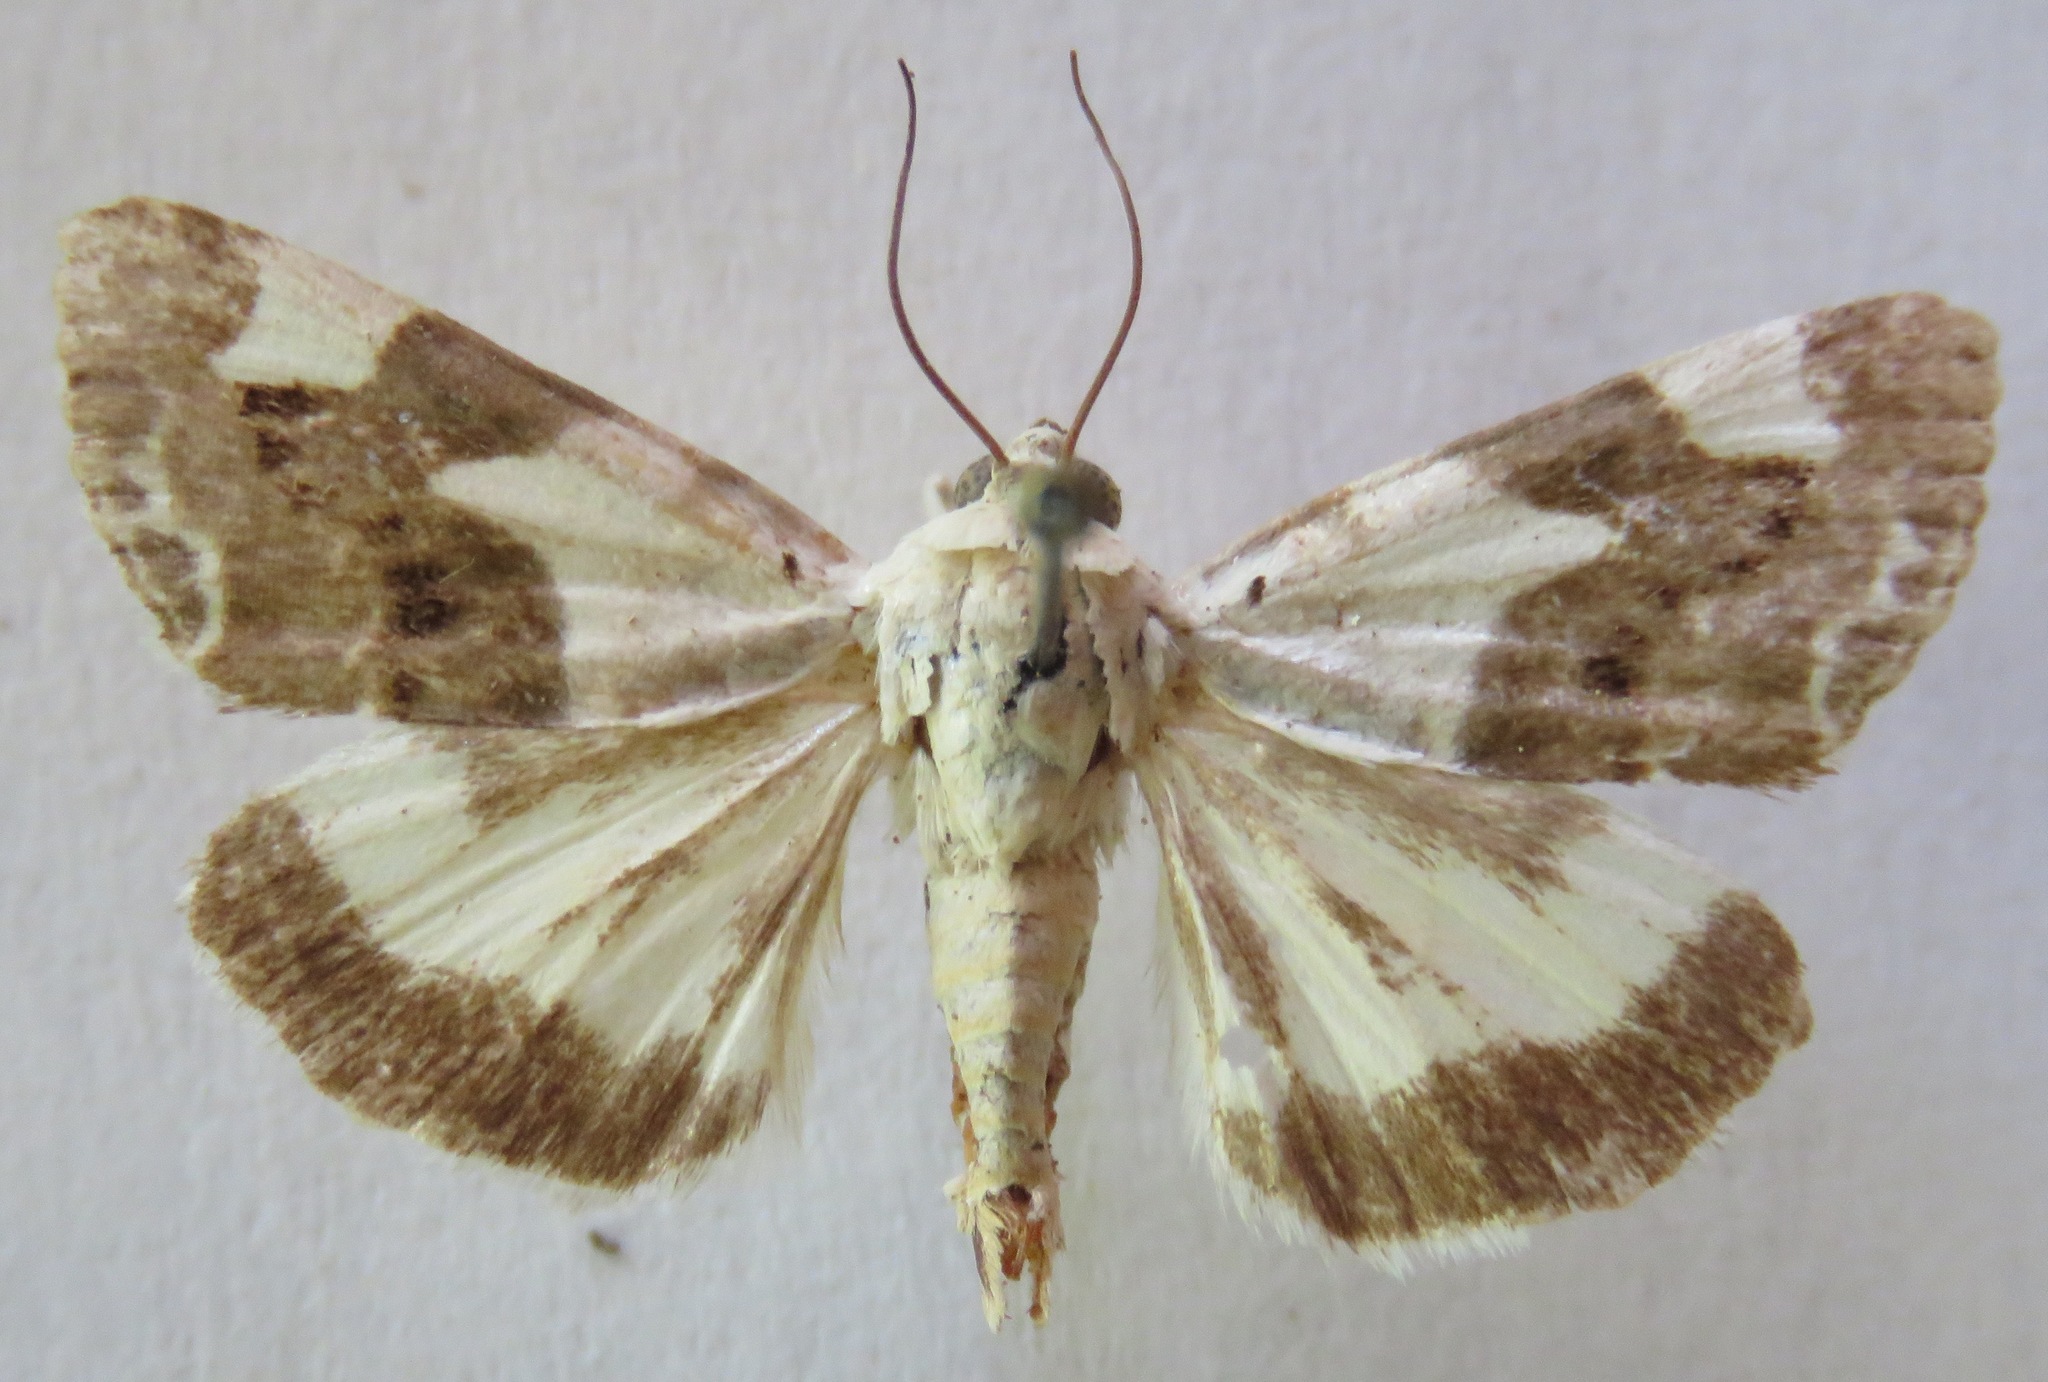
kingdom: Animalia
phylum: Arthropoda
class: Insecta
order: Lepidoptera
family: Noctuidae
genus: Acontia
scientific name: Acontia lucida
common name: Pale shoulder
